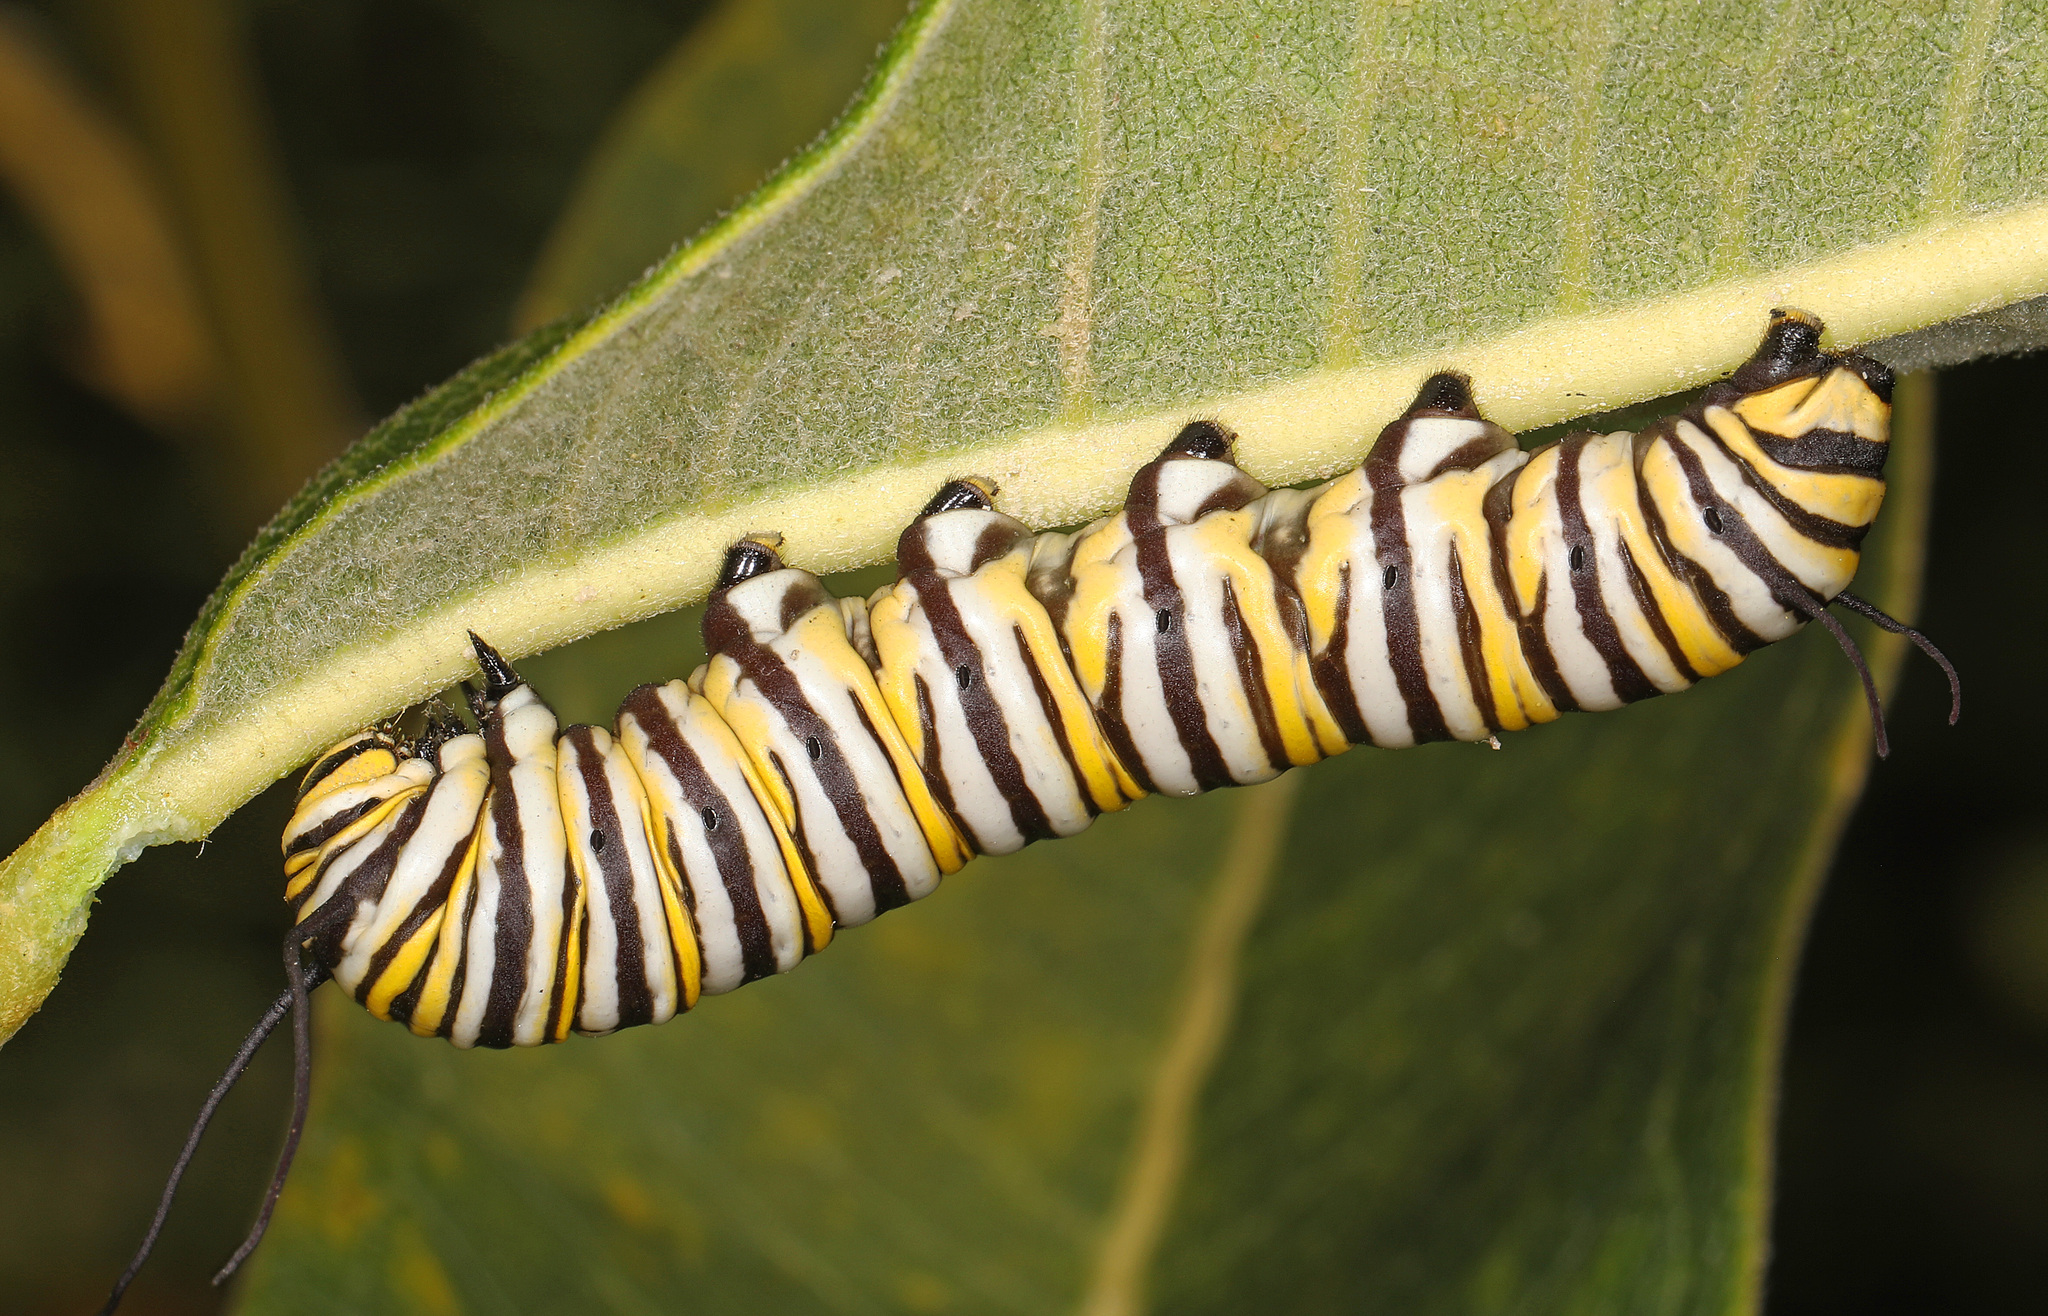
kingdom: Animalia
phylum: Arthropoda
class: Insecta
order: Lepidoptera
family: Nymphalidae
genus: Danaus
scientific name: Danaus plexippus
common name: Monarch
